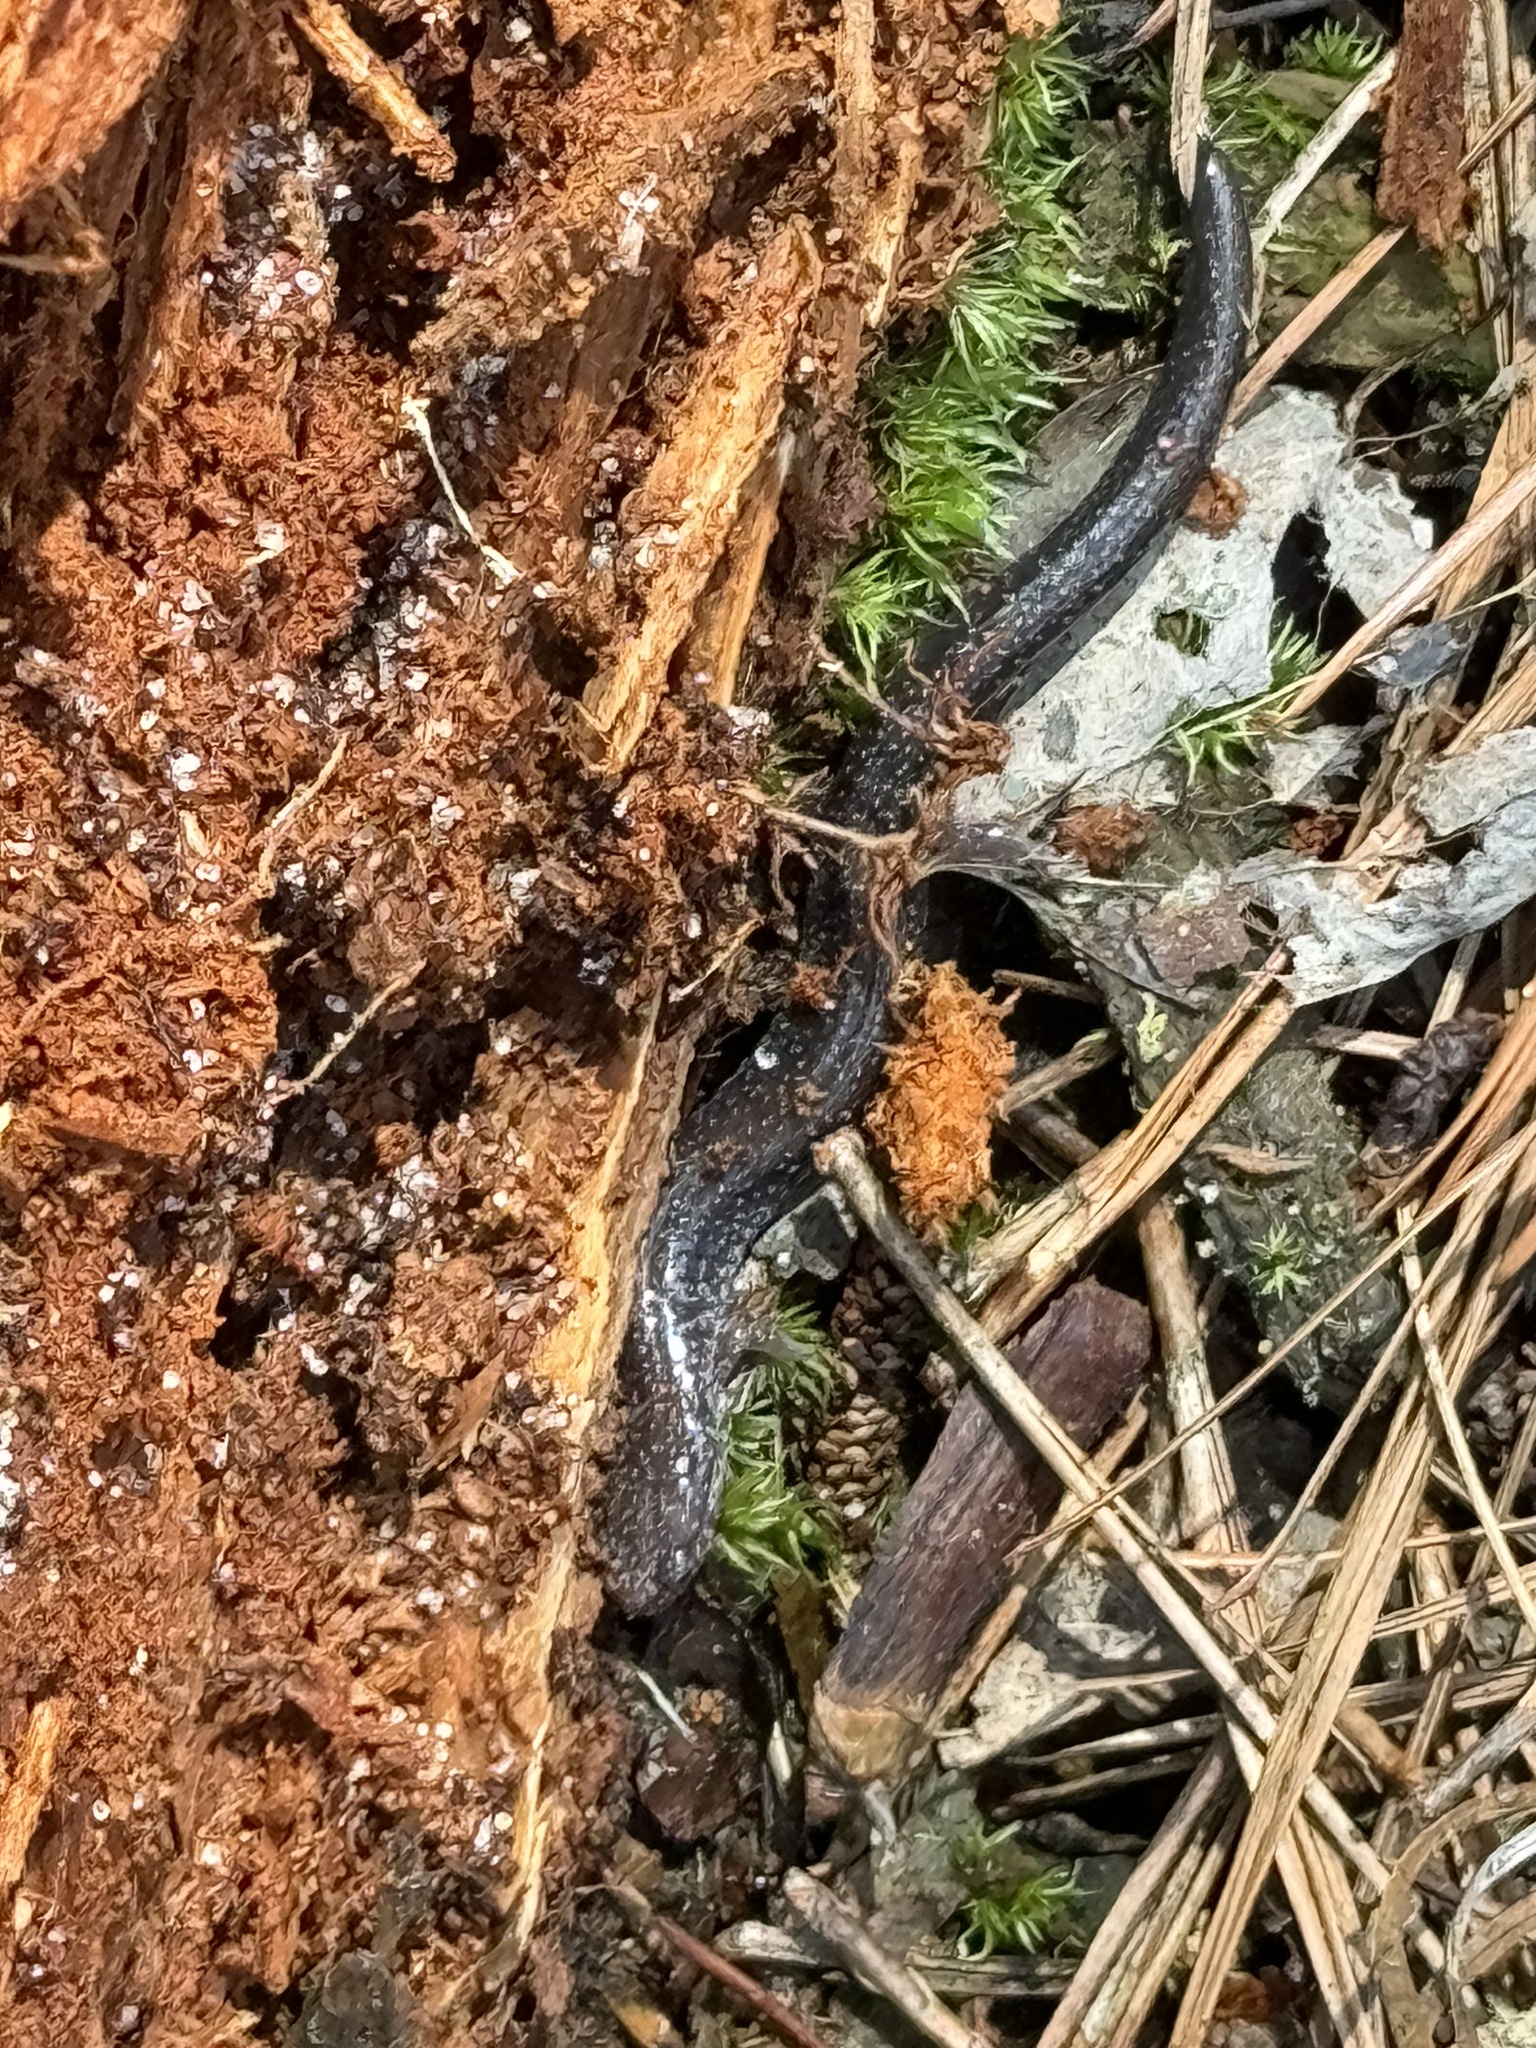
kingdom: Animalia
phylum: Chordata
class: Amphibia
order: Caudata
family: Plethodontidae
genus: Plethodon
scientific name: Plethodon cinereus
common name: Redback salamander
